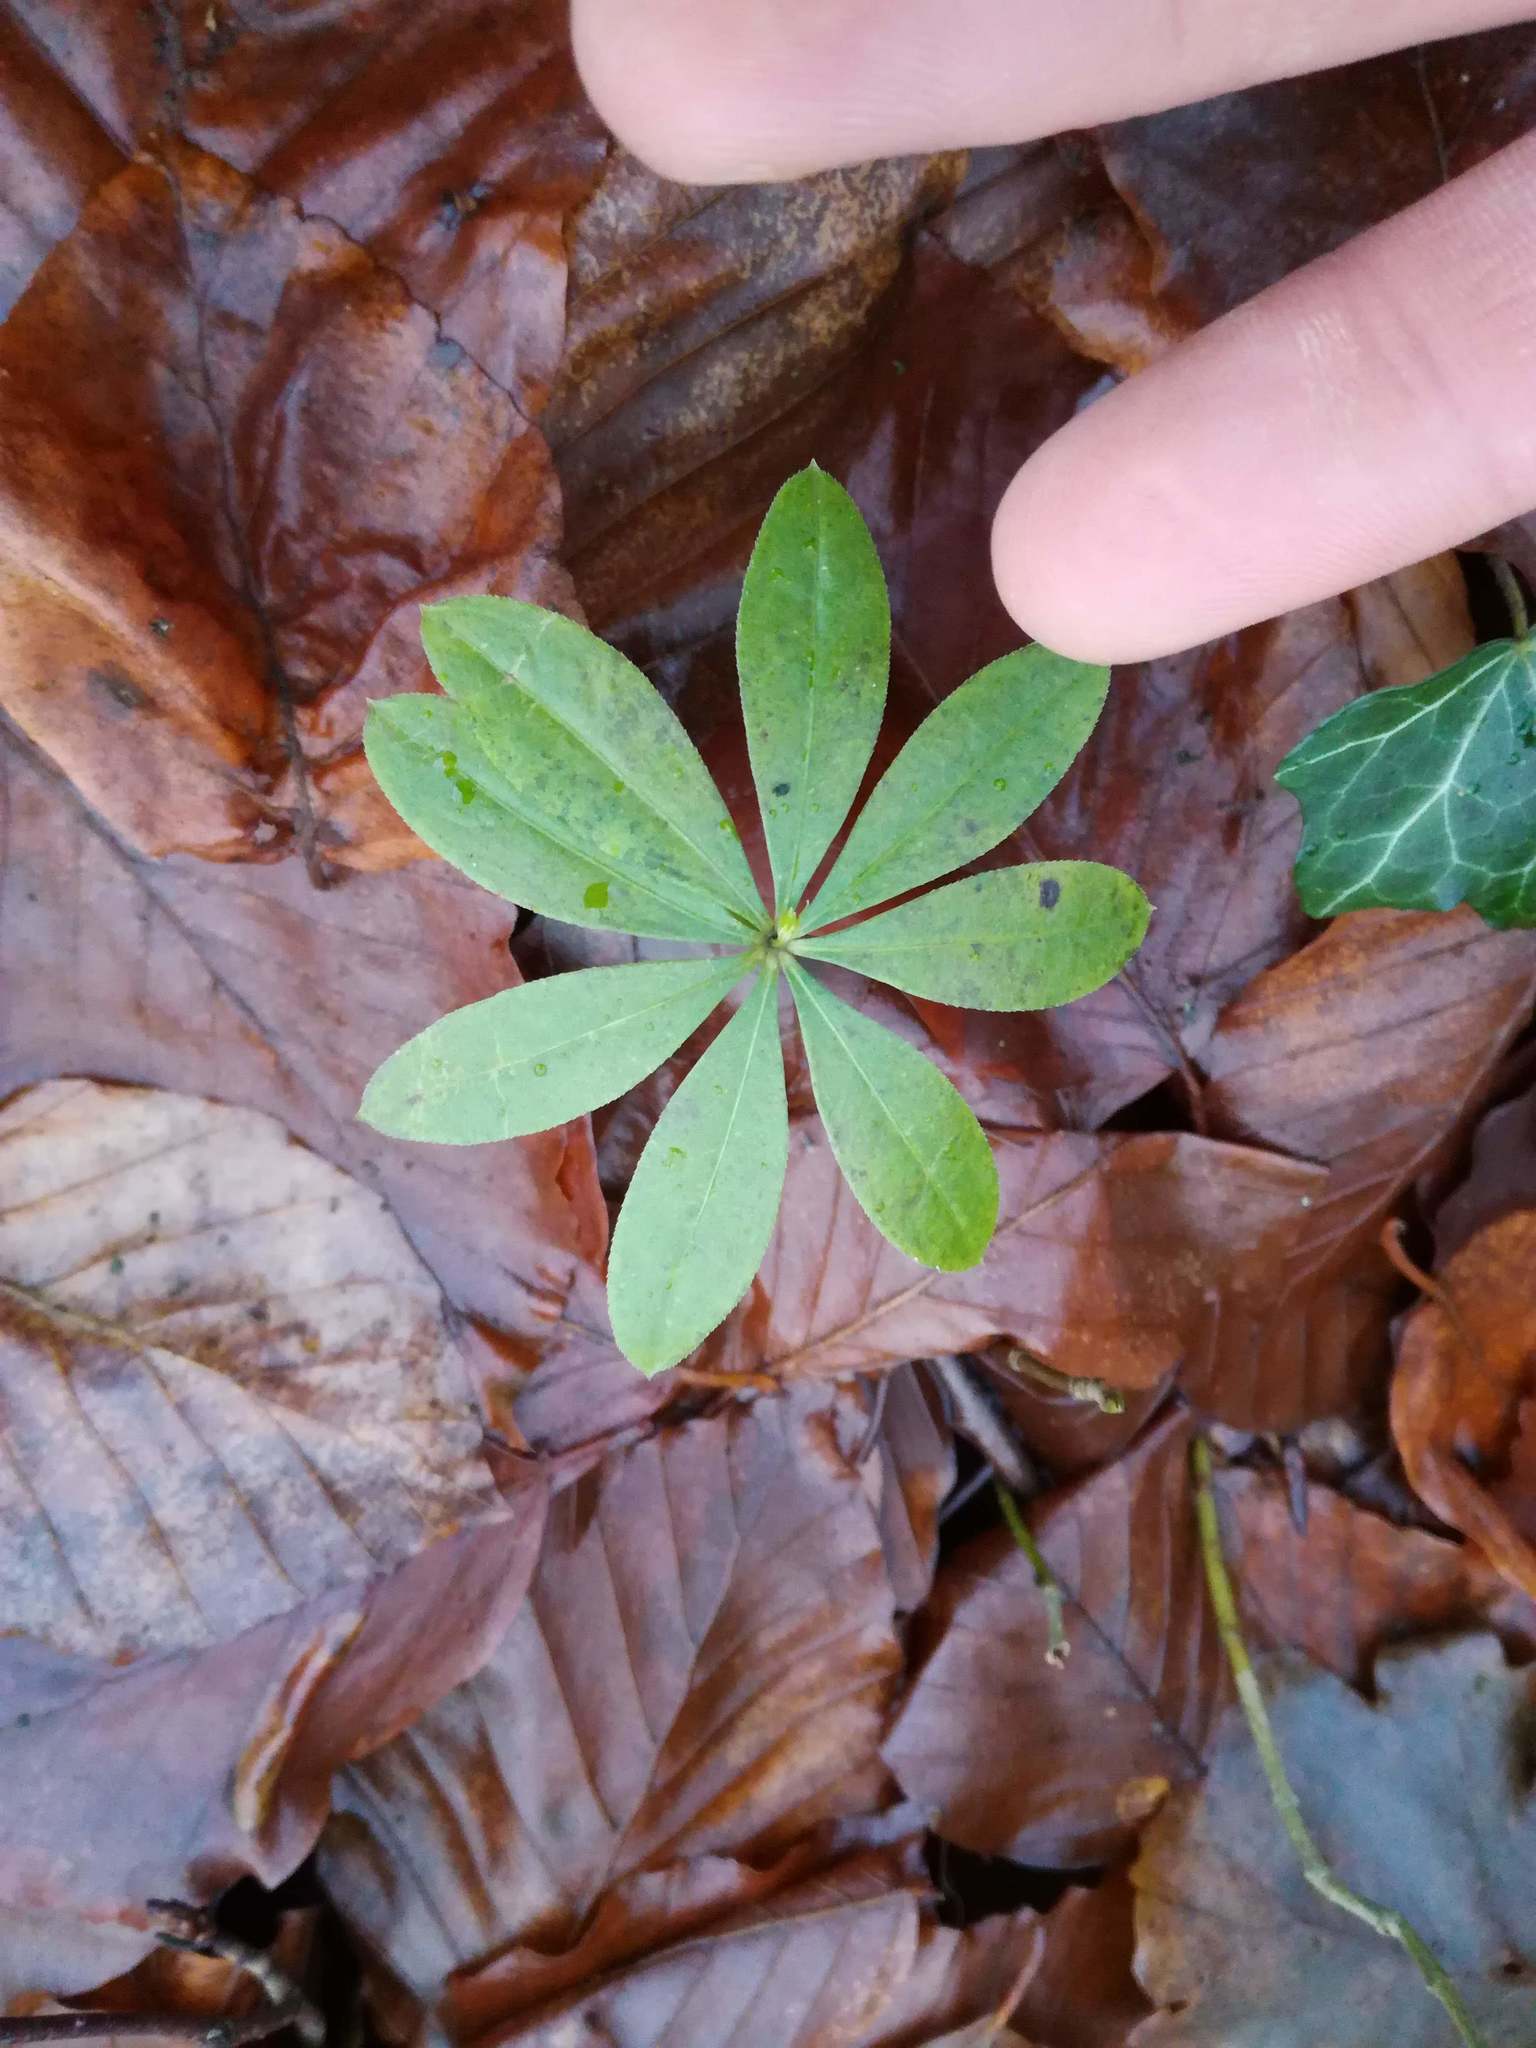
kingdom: Plantae
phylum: Tracheophyta
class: Magnoliopsida
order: Gentianales
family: Rubiaceae
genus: Galium
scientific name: Galium odoratum
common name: Sweet woodruff
